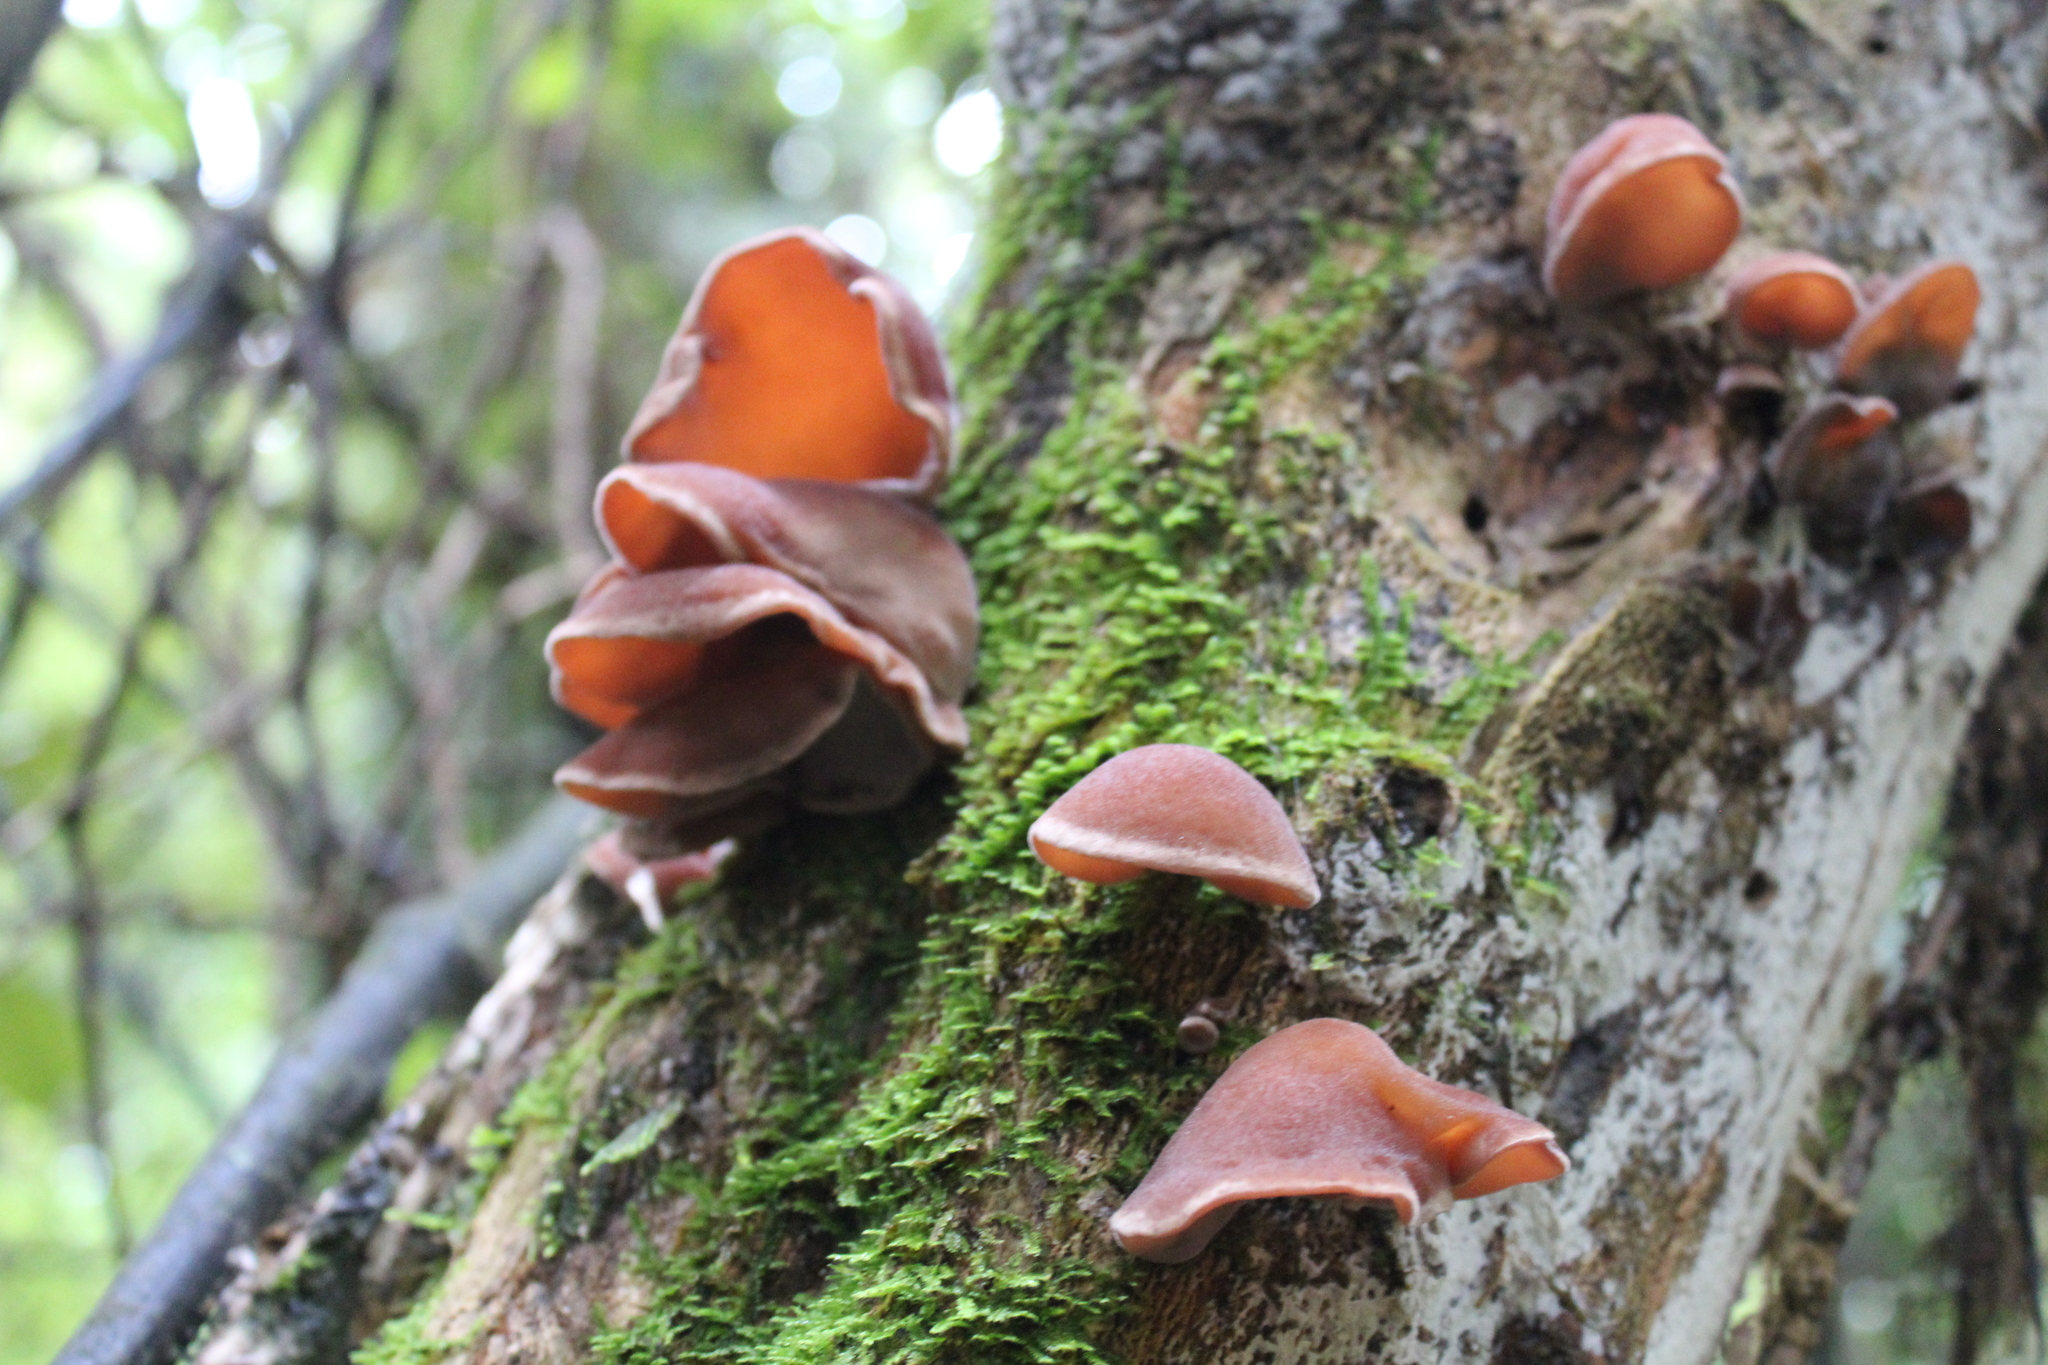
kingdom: Fungi
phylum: Basidiomycota
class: Agaricomycetes
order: Auriculariales
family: Auriculariaceae
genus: Auricularia
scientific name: Auricularia cornea
